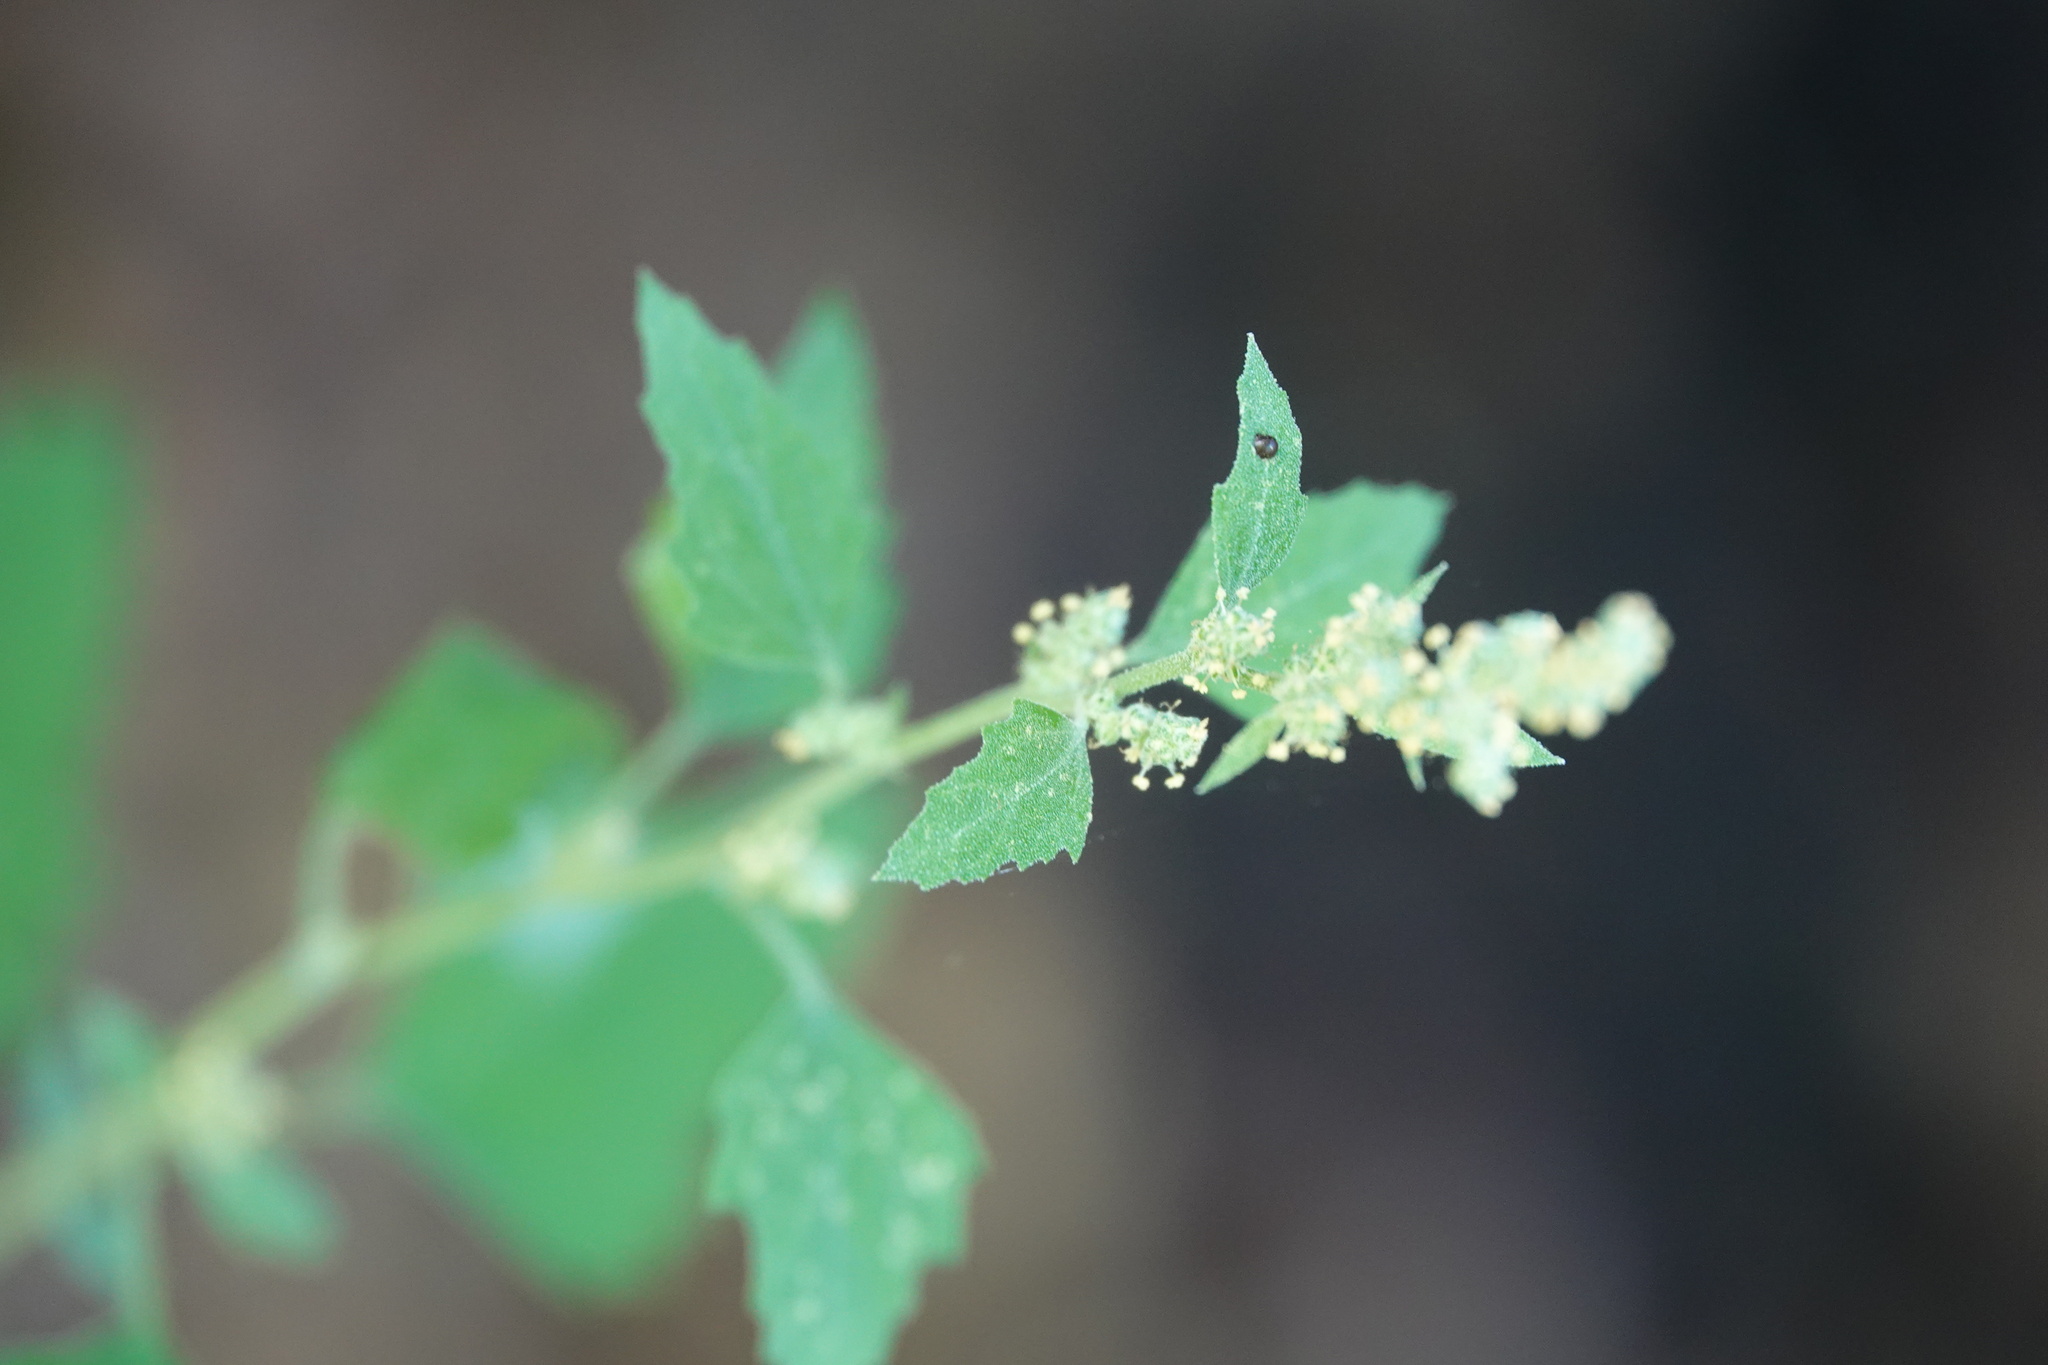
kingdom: Plantae
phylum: Tracheophyta
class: Magnoliopsida
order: Caryophyllales
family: Amaranthaceae
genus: Chenopodium
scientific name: Chenopodium album
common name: Fat-hen
